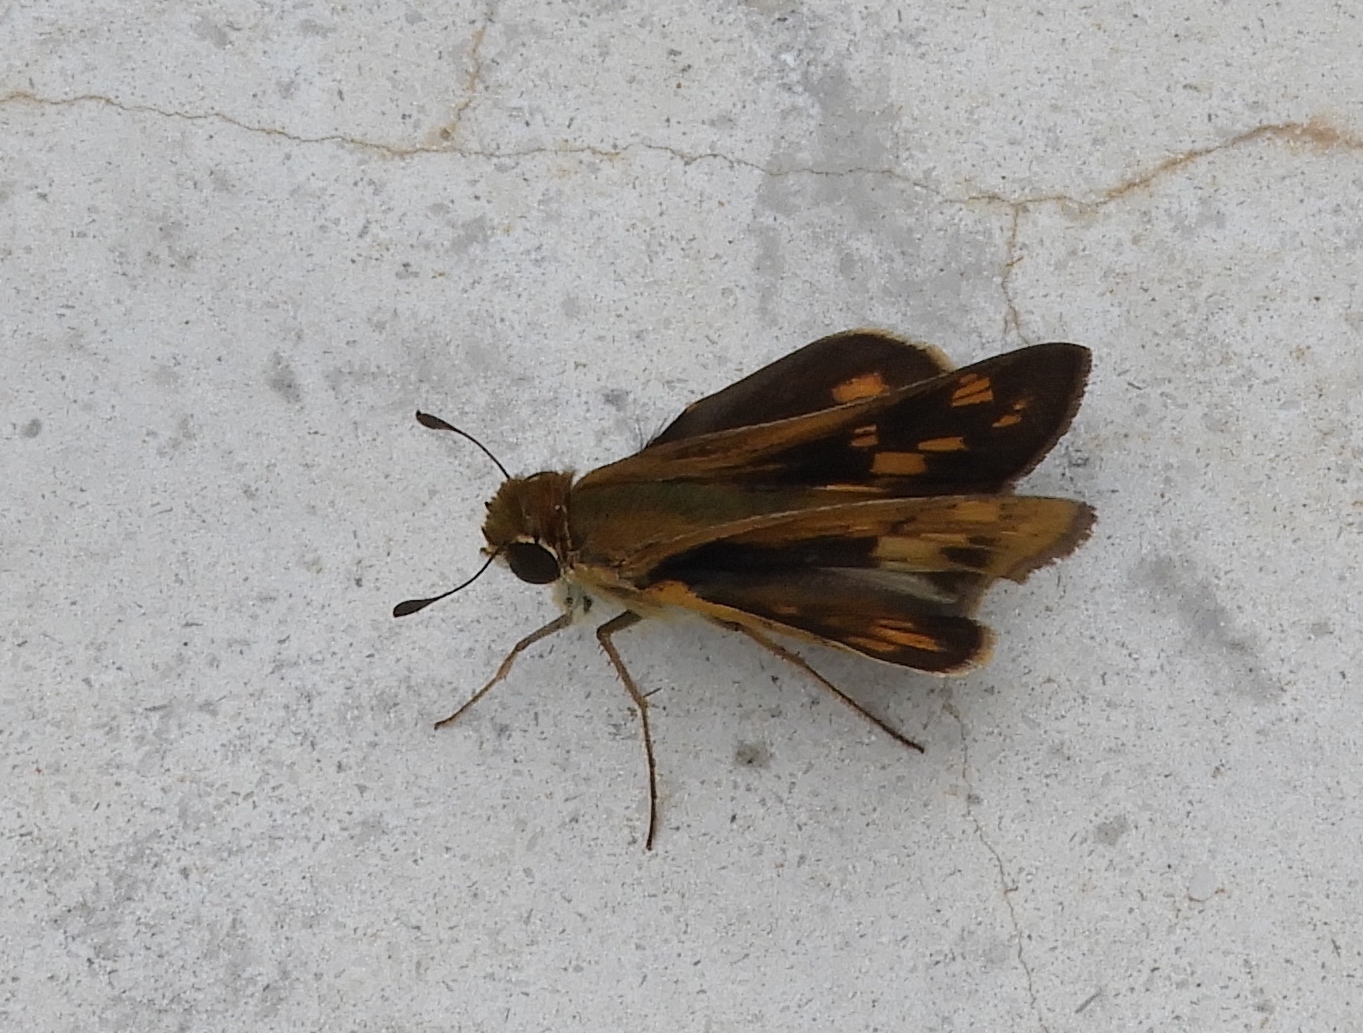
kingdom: Animalia
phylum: Arthropoda
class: Insecta
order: Lepidoptera
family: Hesperiidae
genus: Hylephila
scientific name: Hylephila phyleus
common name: Fiery skipper
